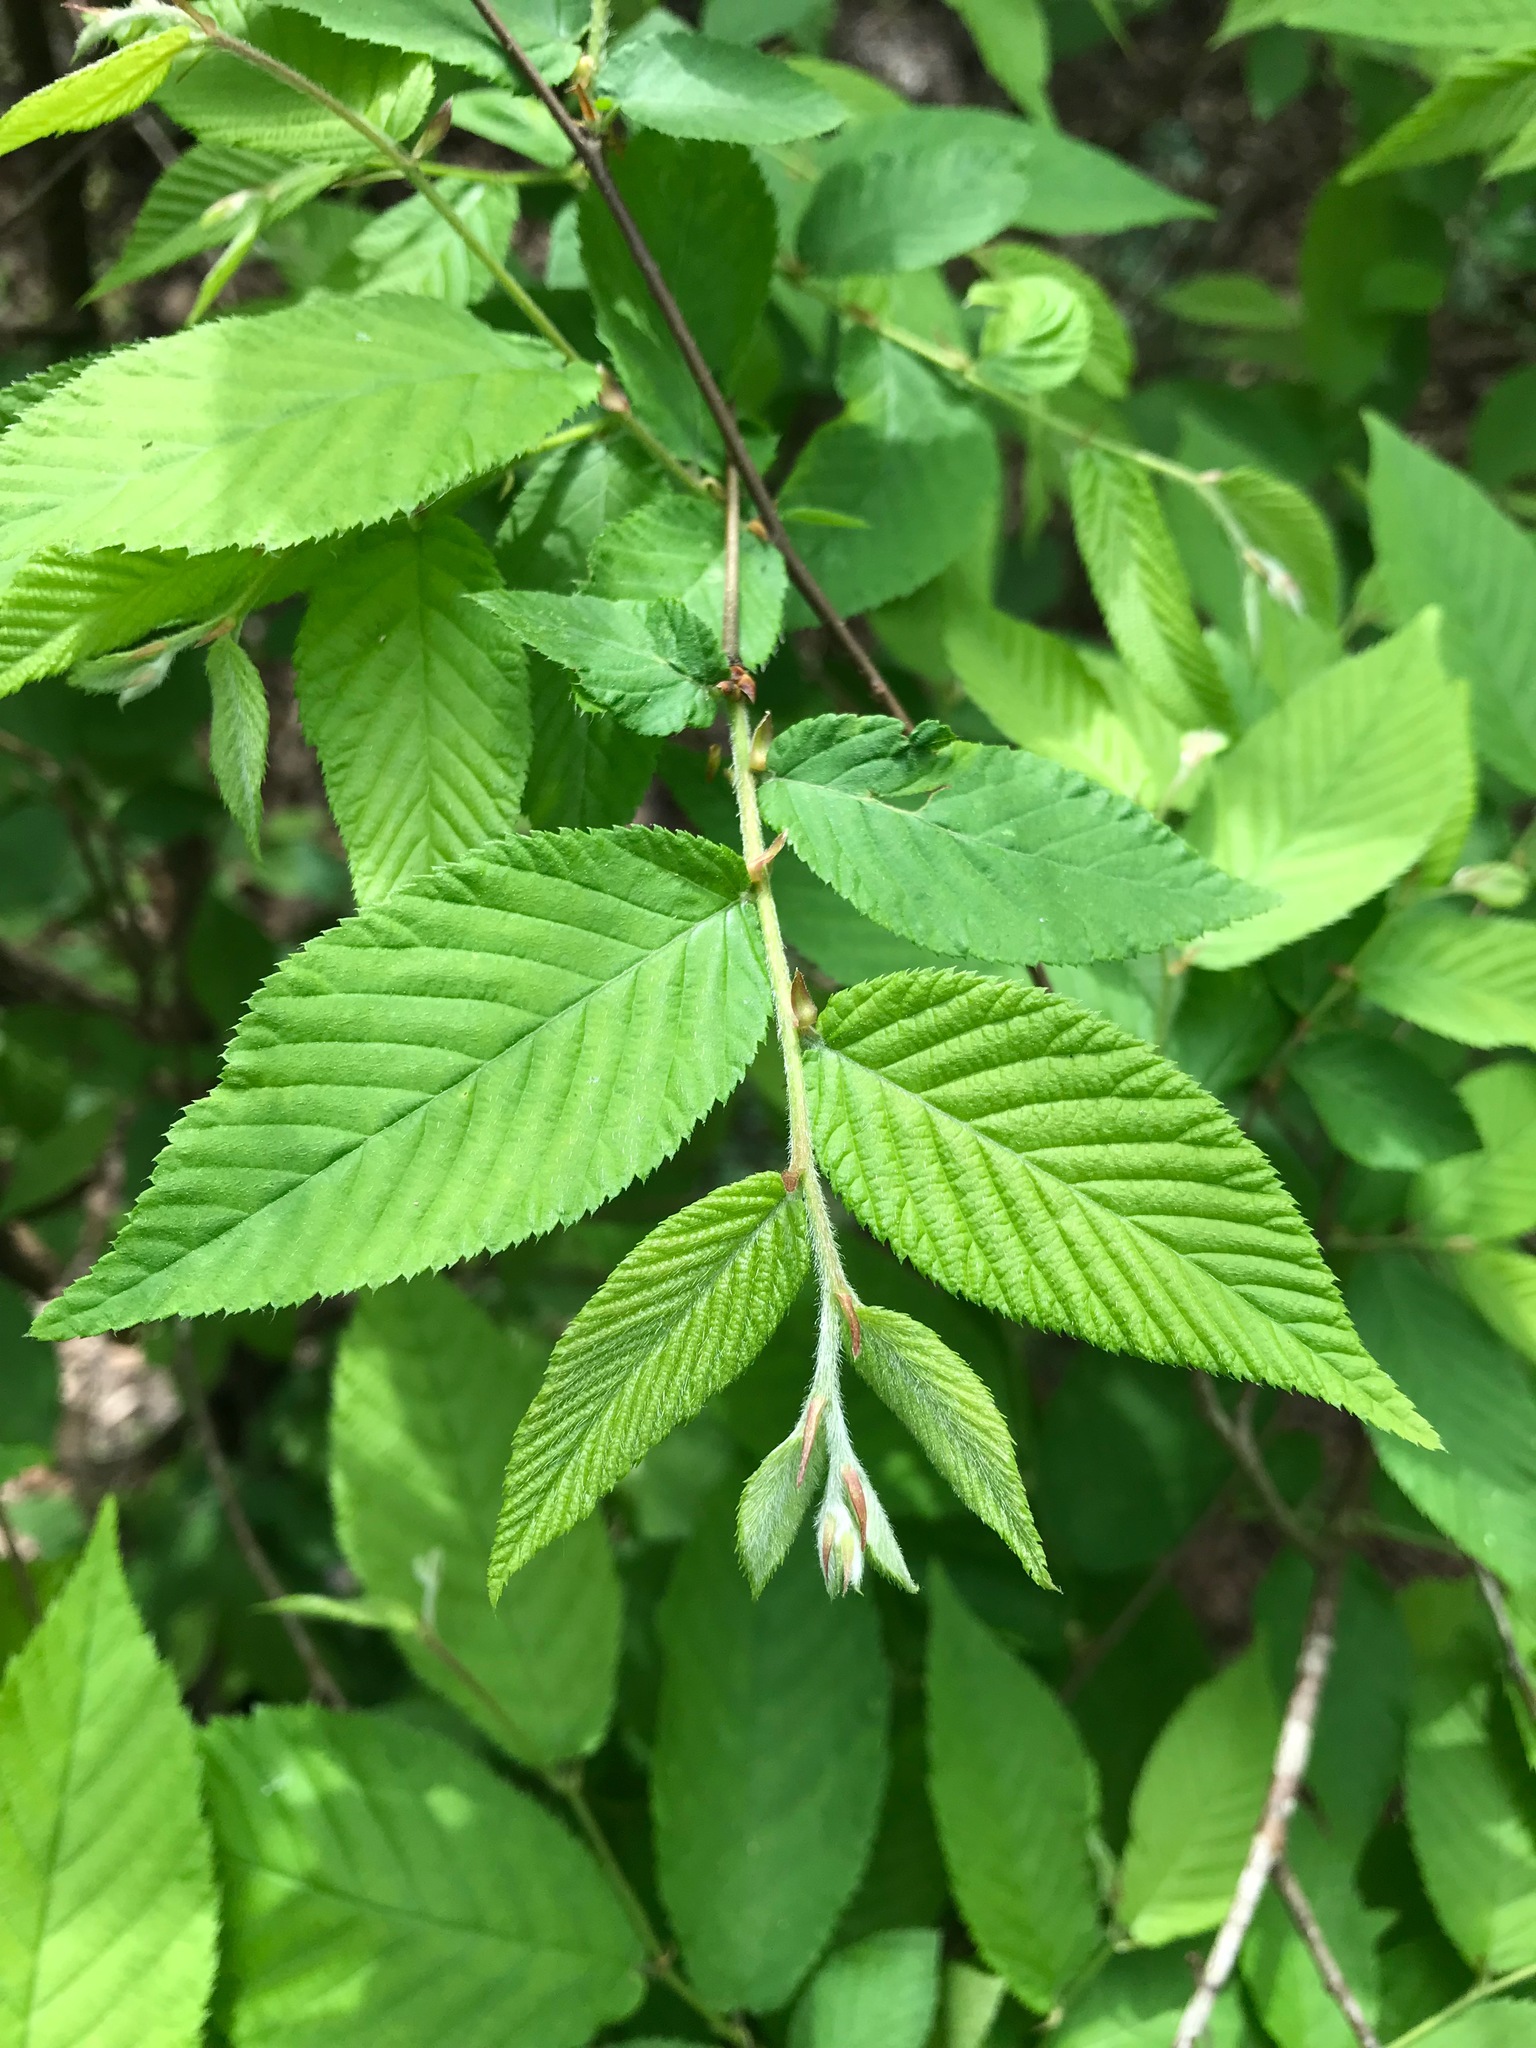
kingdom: Plantae
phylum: Tracheophyta
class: Magnoliopsida
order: Fagales
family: Betulaceae
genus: Ostrya
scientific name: Ostrya virginiana
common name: Ironwood
